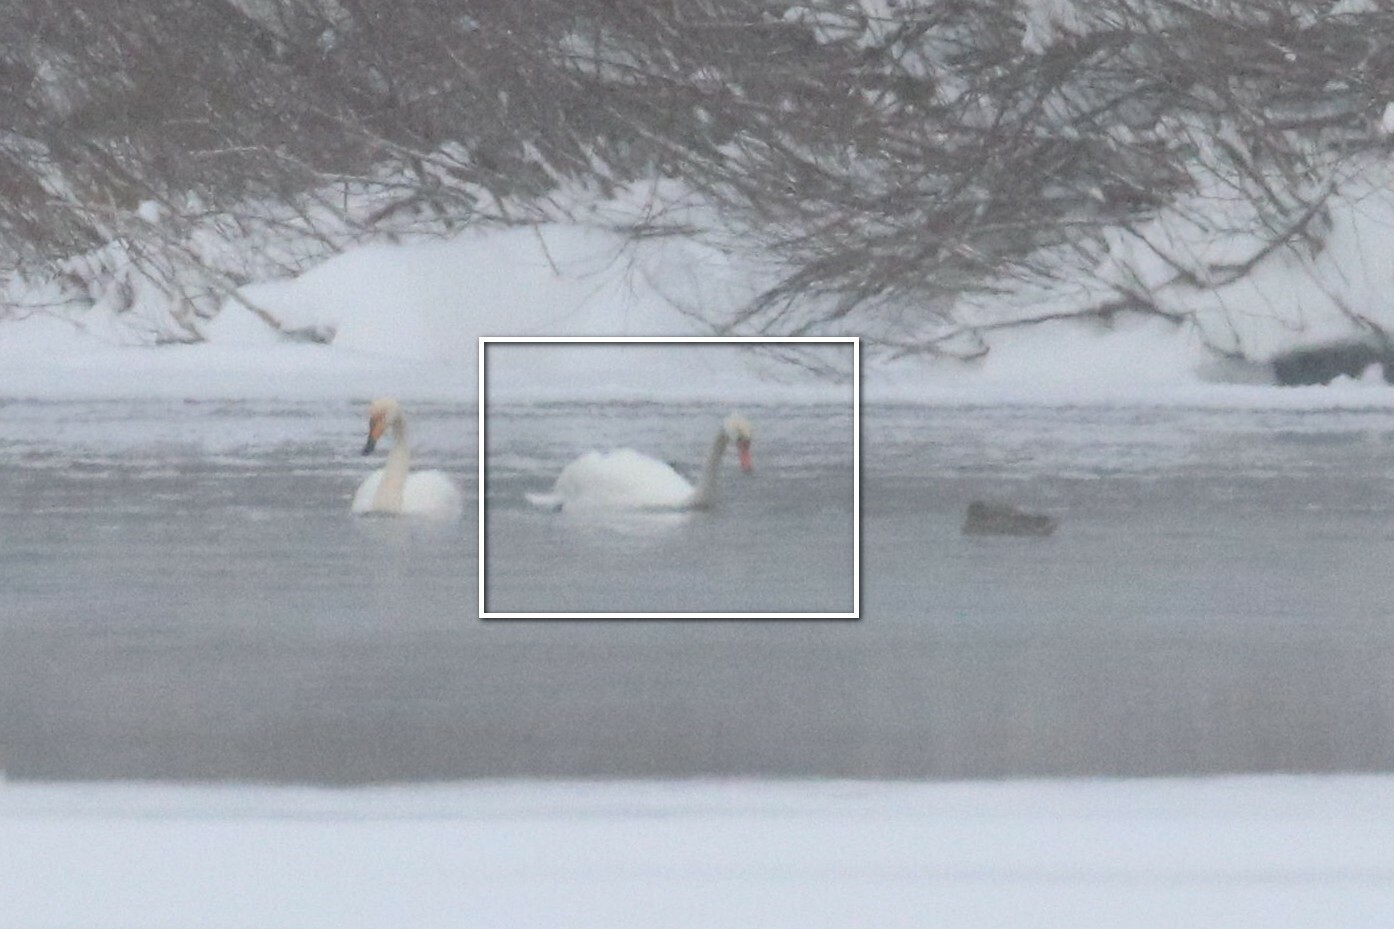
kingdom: Animalia
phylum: Chordata
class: Aves
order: Anseriformes
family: Anatidae
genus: Cygnus
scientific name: Cygnus olor
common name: Mute swan
